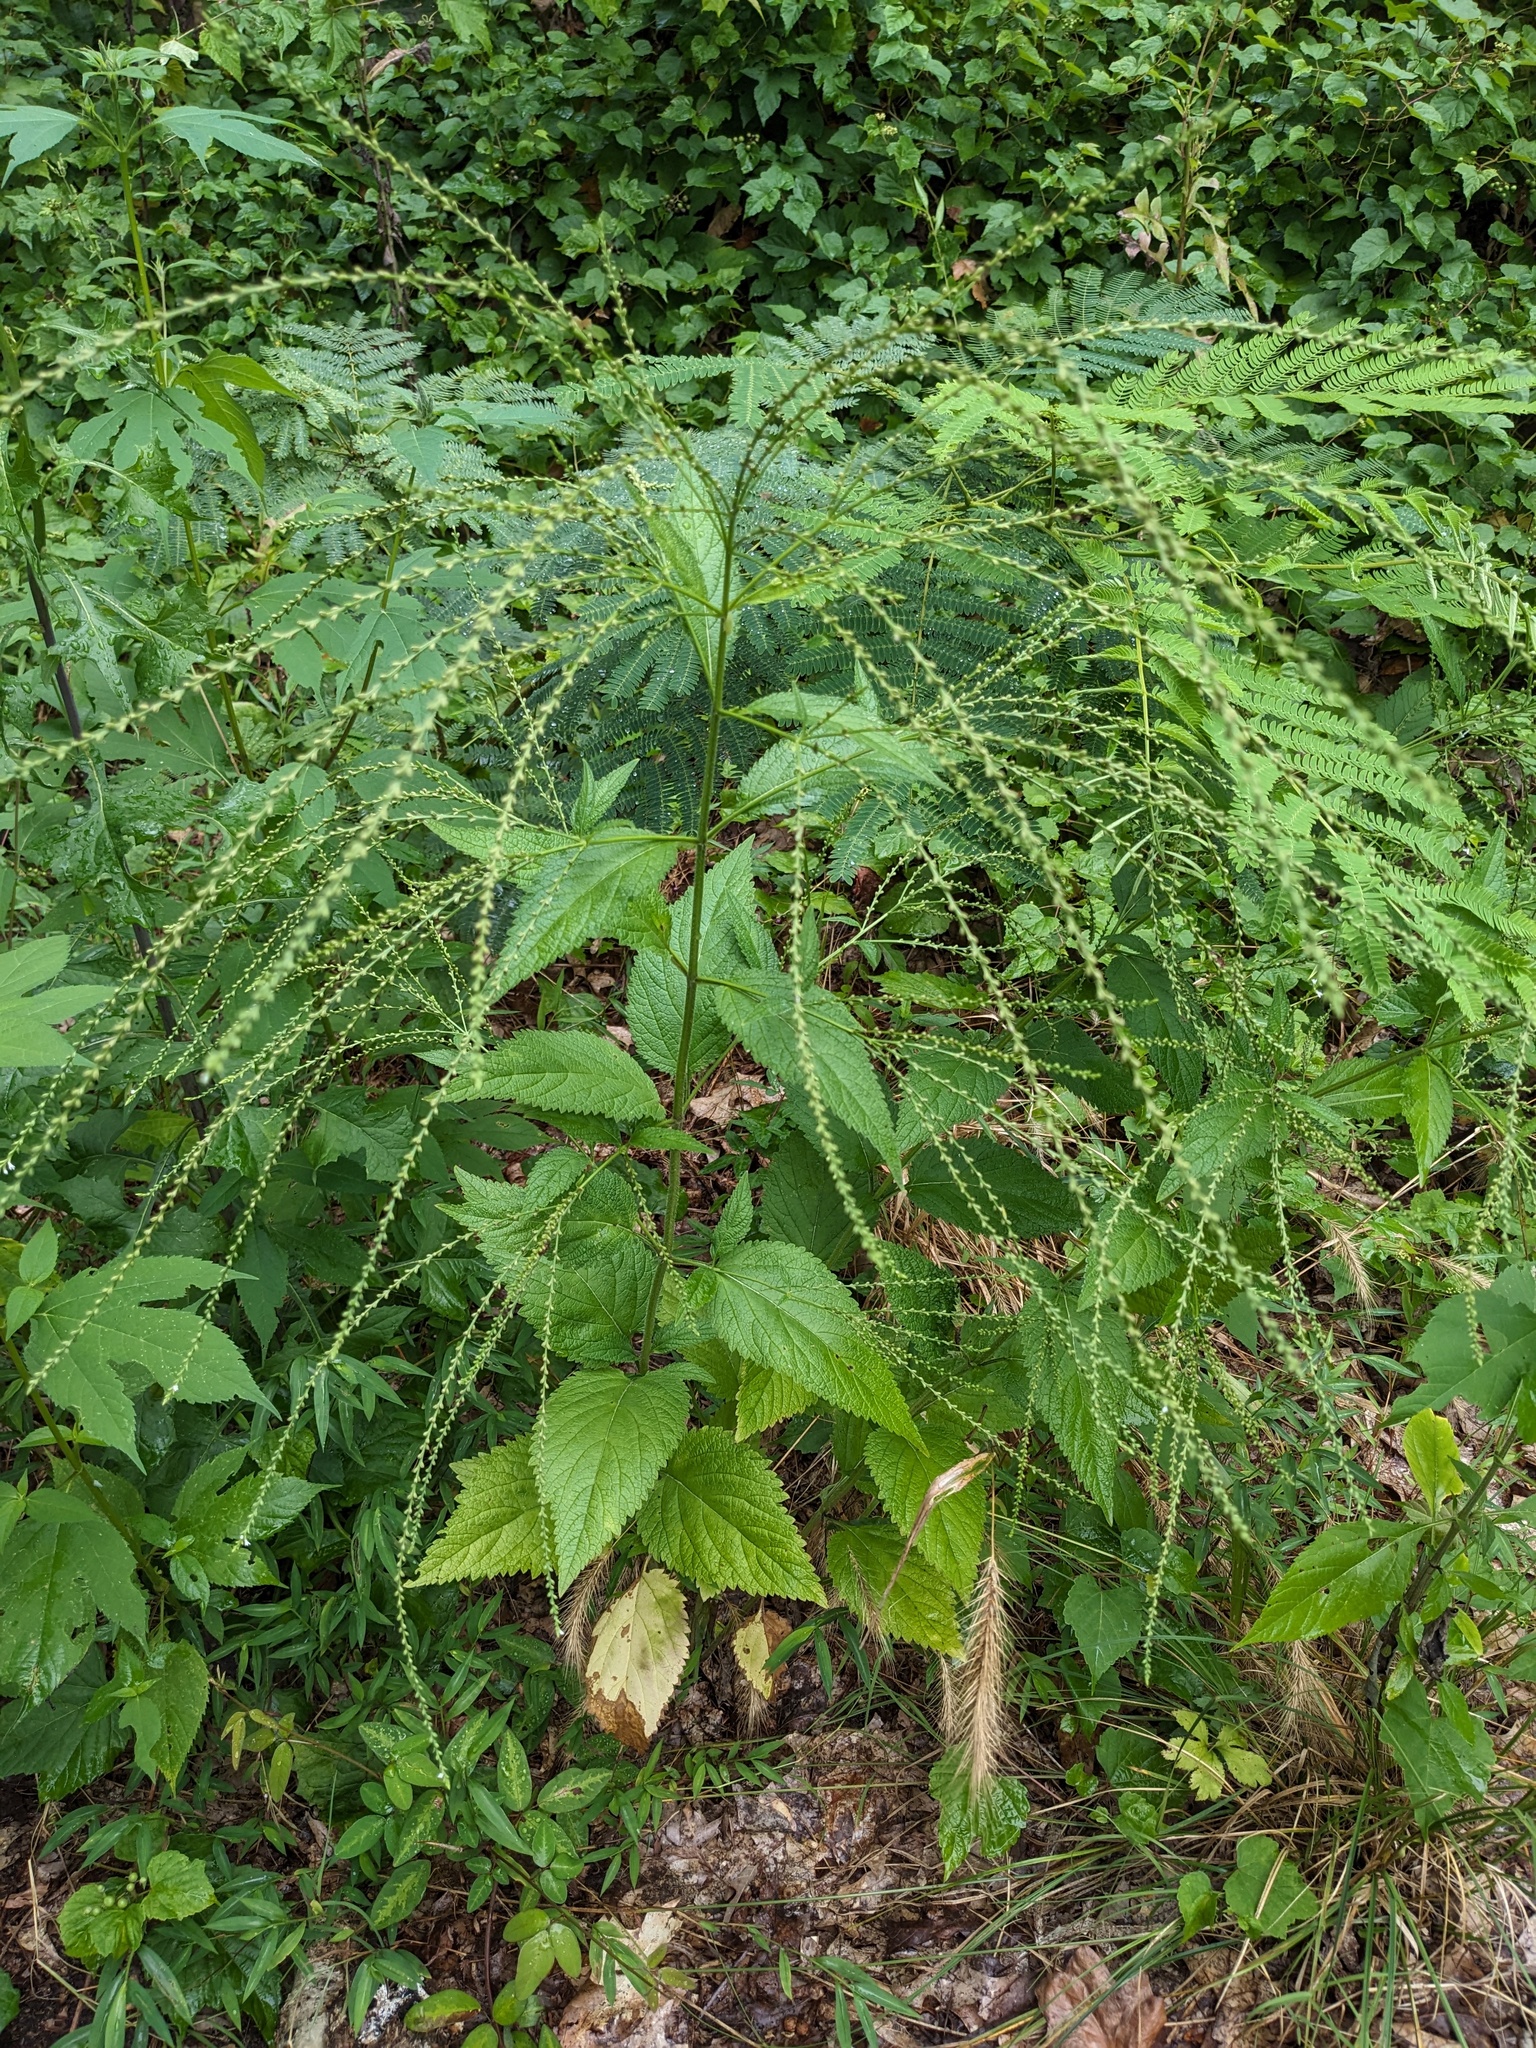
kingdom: Plantae
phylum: Tracheophyta
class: Magnoliopsida
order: Lamiales
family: Verbenaceae
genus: Verbena
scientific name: Verbena urticifolia
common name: Nettle-leaved vervain
